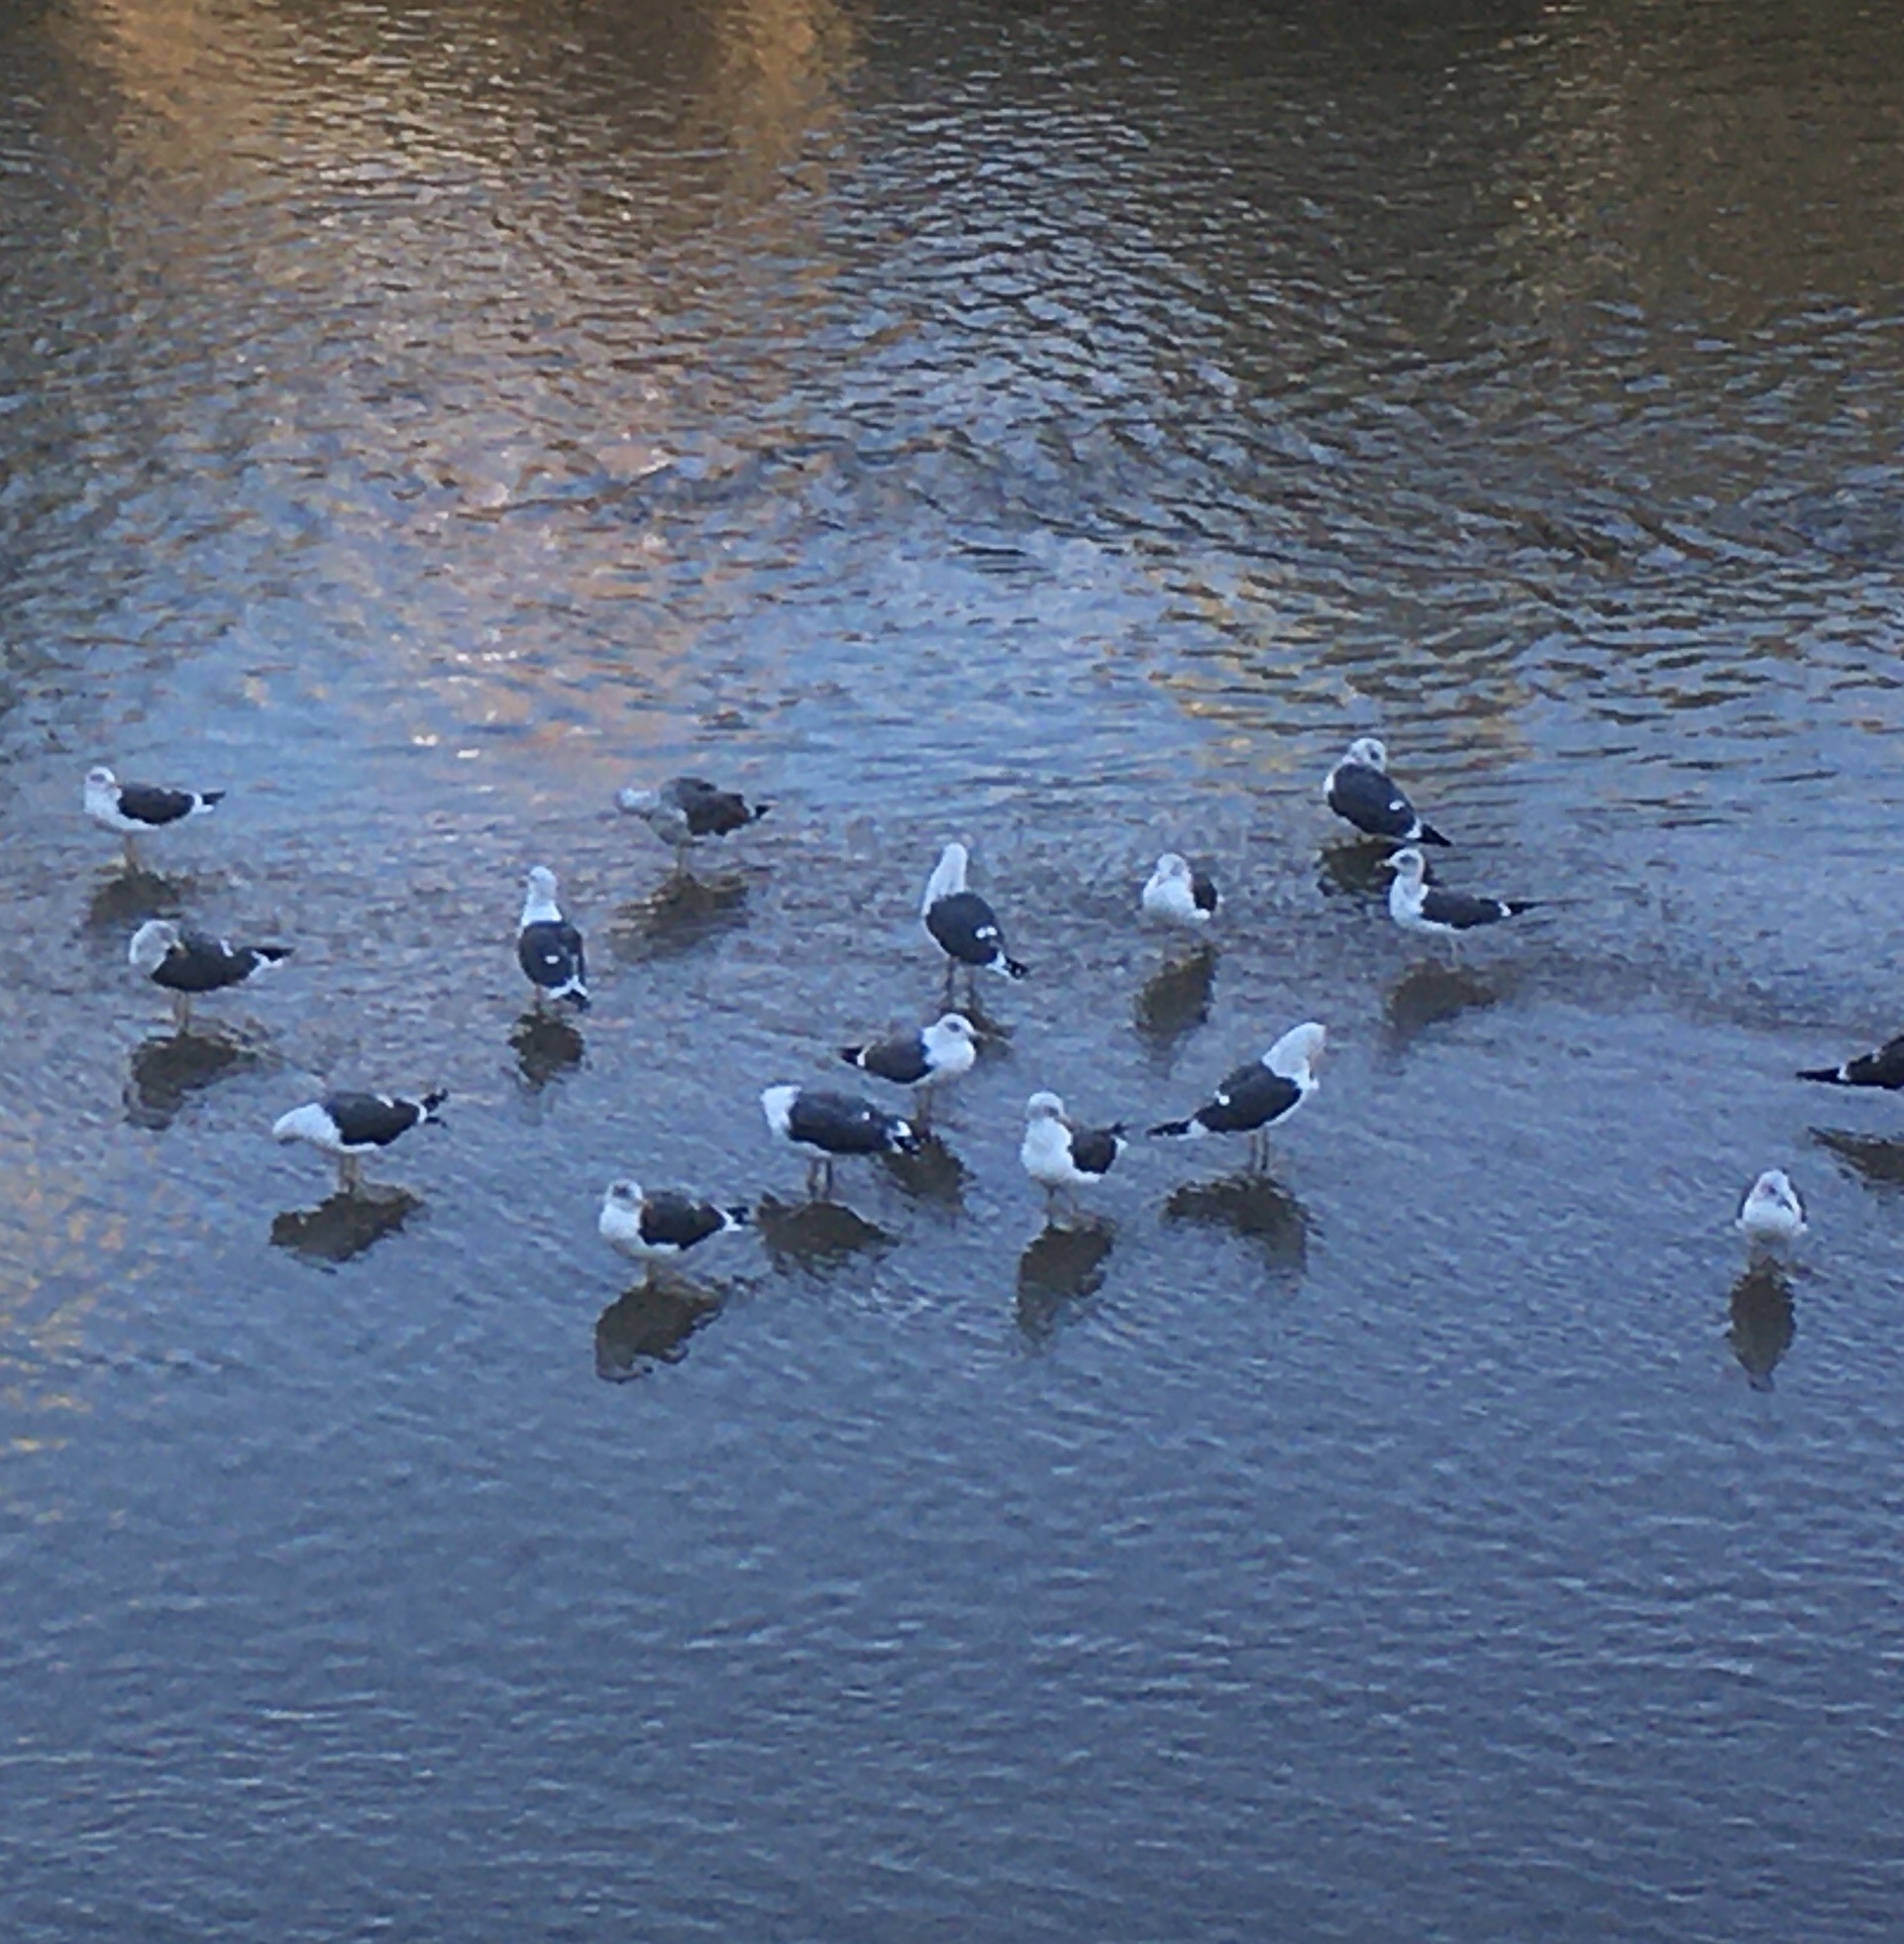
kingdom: Animalia
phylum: Chordata
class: Aves
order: Charadriiformes
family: Laridae
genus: Larus
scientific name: Larus fuscus
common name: Lesser black-backed gull
